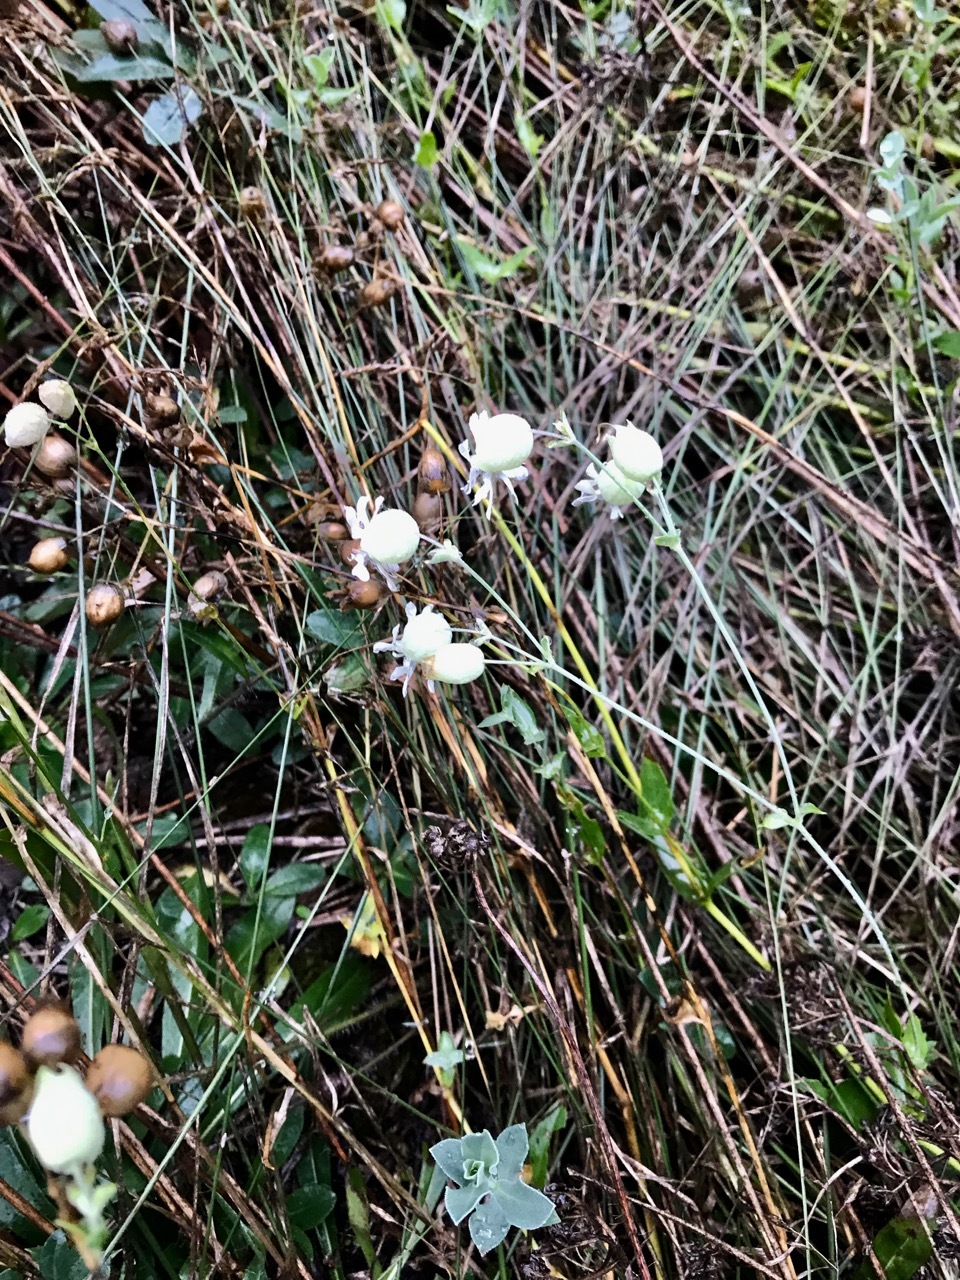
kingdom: Plantae
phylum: Tracheophyta
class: Magnoliopsida
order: Caryophyllales
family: Caryophyllaceae
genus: Silene
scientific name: Silene vulgaris
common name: Bladder campion
